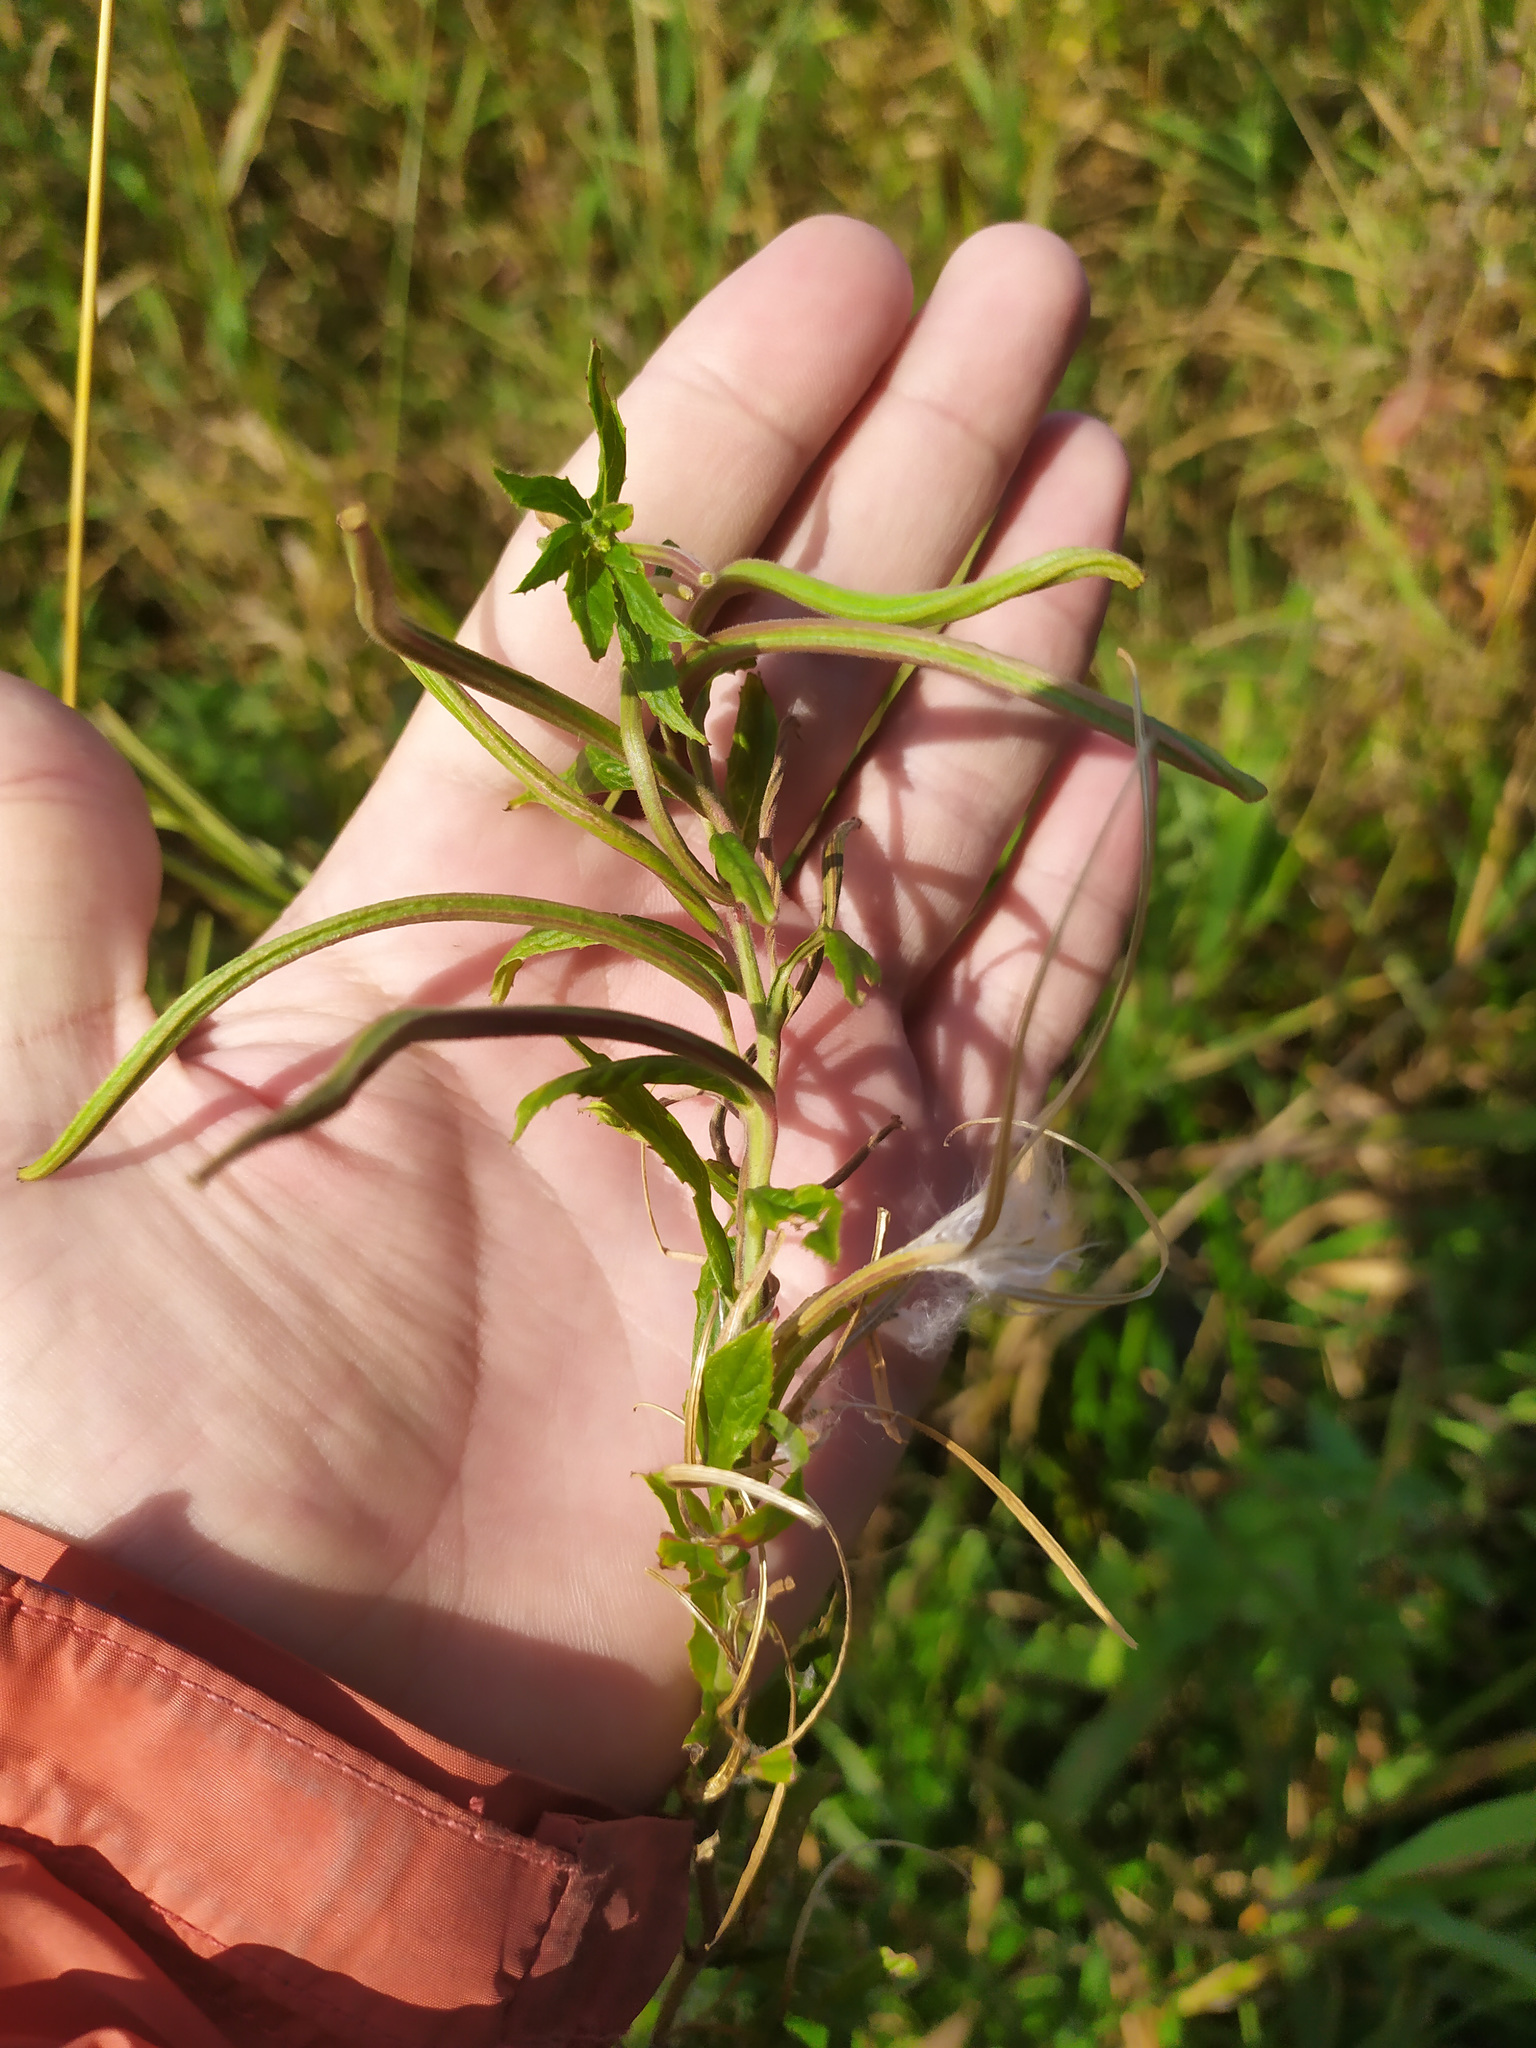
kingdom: Plantae
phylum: Tracheophyta
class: Magnoliopsida
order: Myrtales
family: Onagraceae
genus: Epilobium
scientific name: Epilobium hirsutum
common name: Great willowherb
